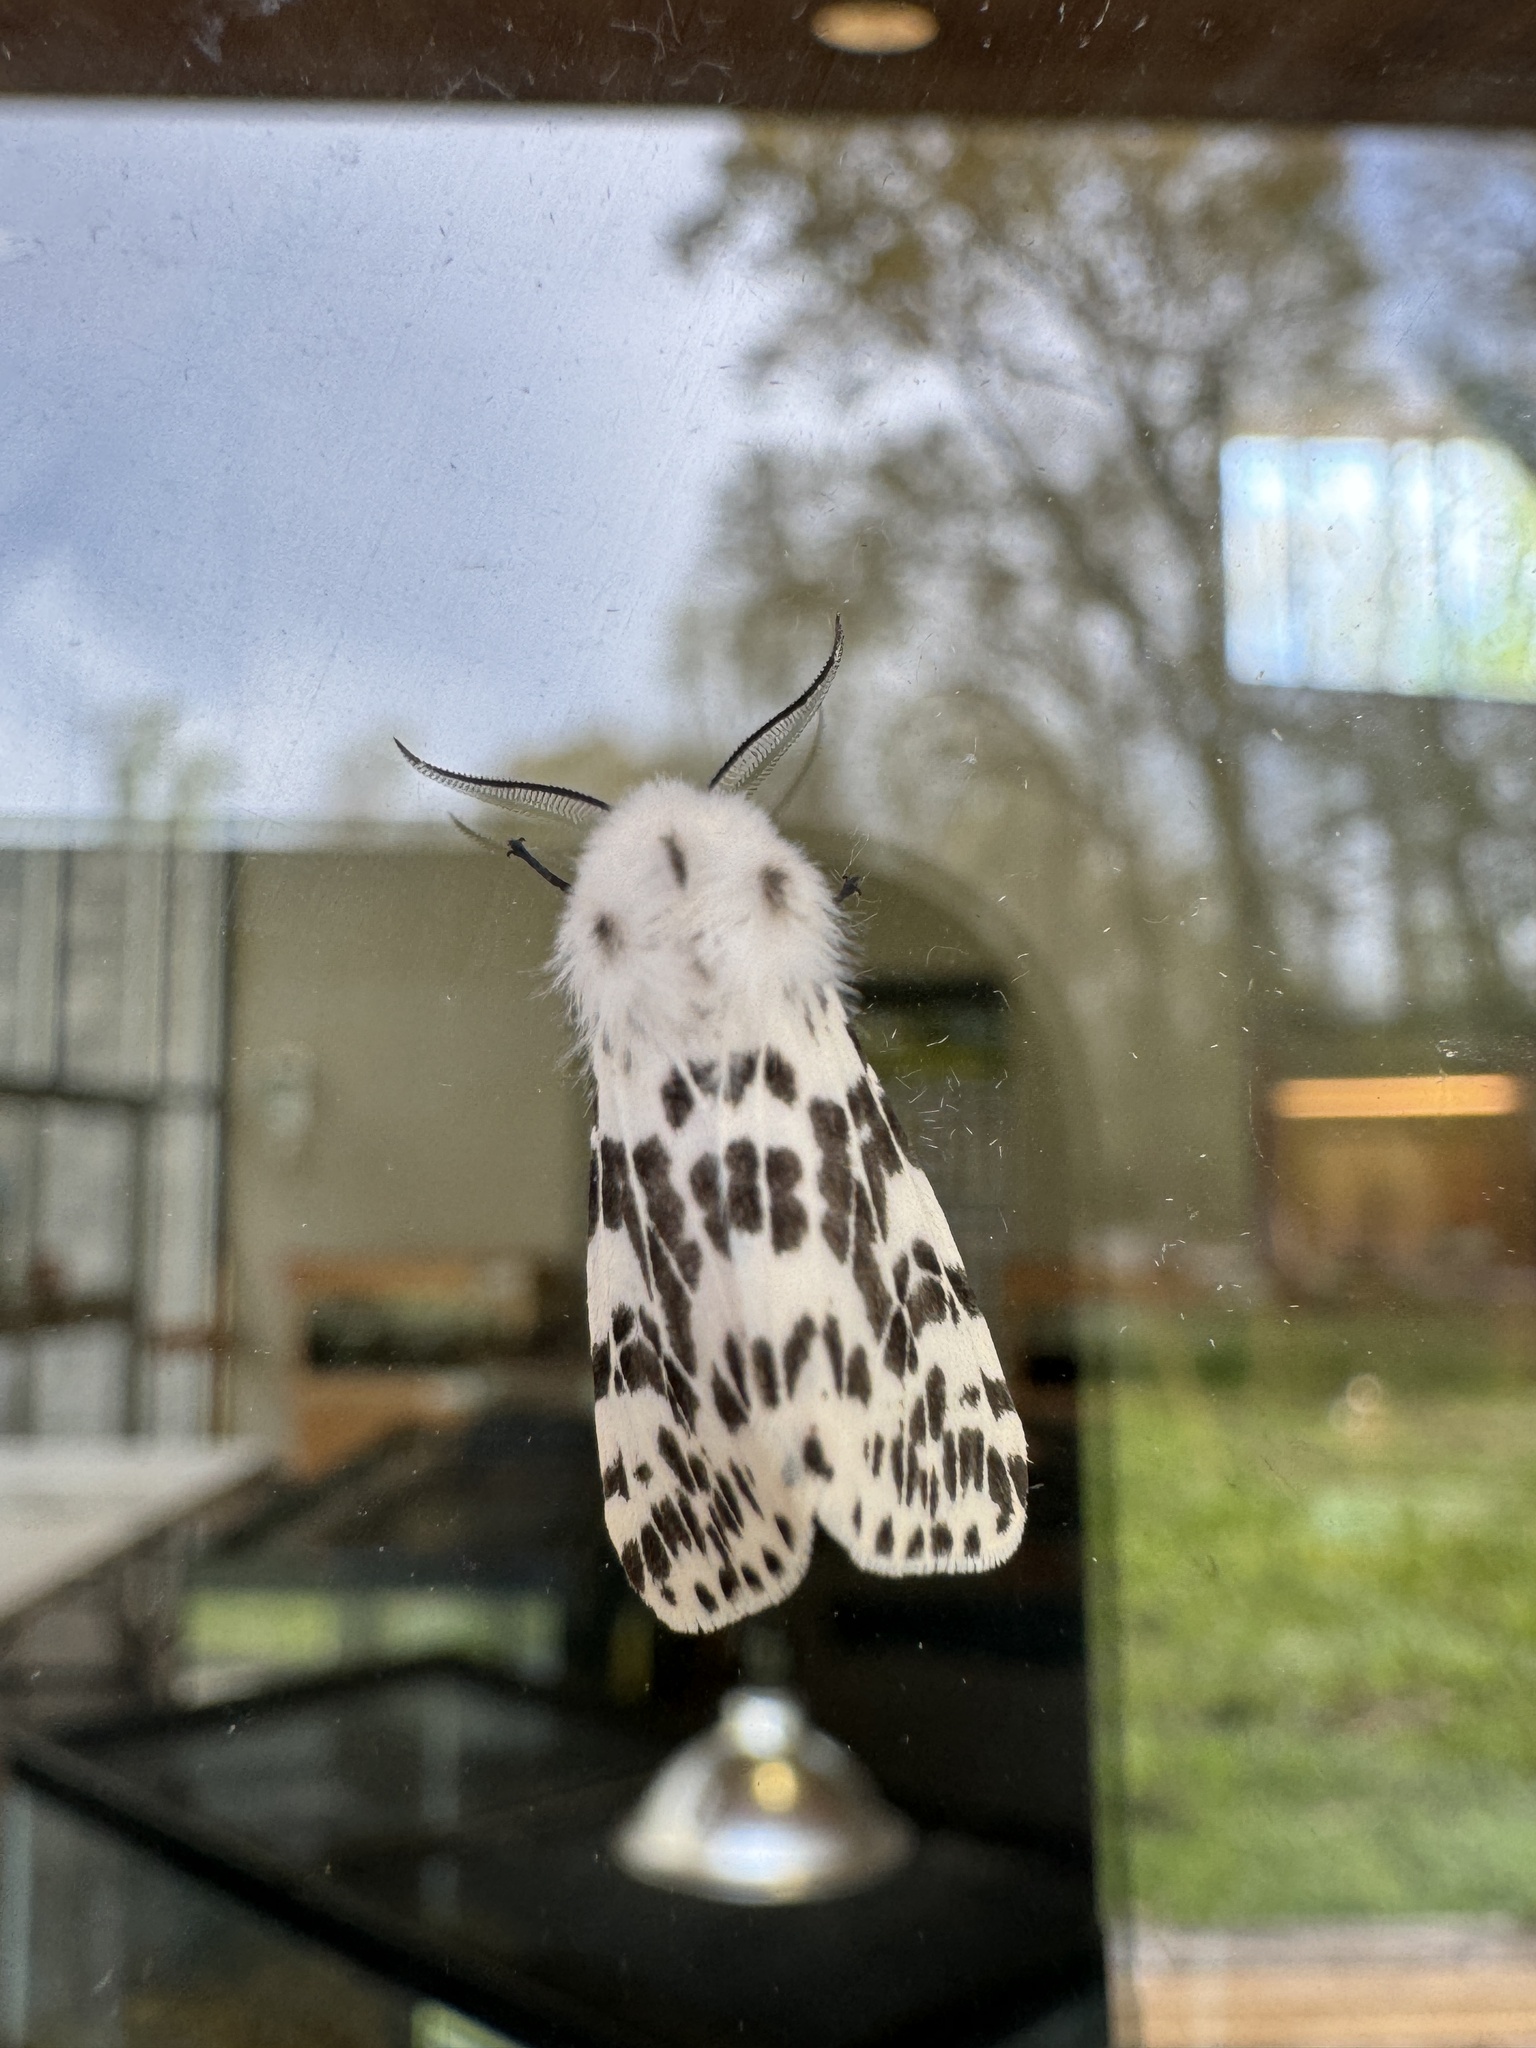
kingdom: Animalia
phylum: Arthropoda
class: Insecta
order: Lepidoptera
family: Erebidae
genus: Hyphantria
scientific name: Hyphantria cunea
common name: American white moth
